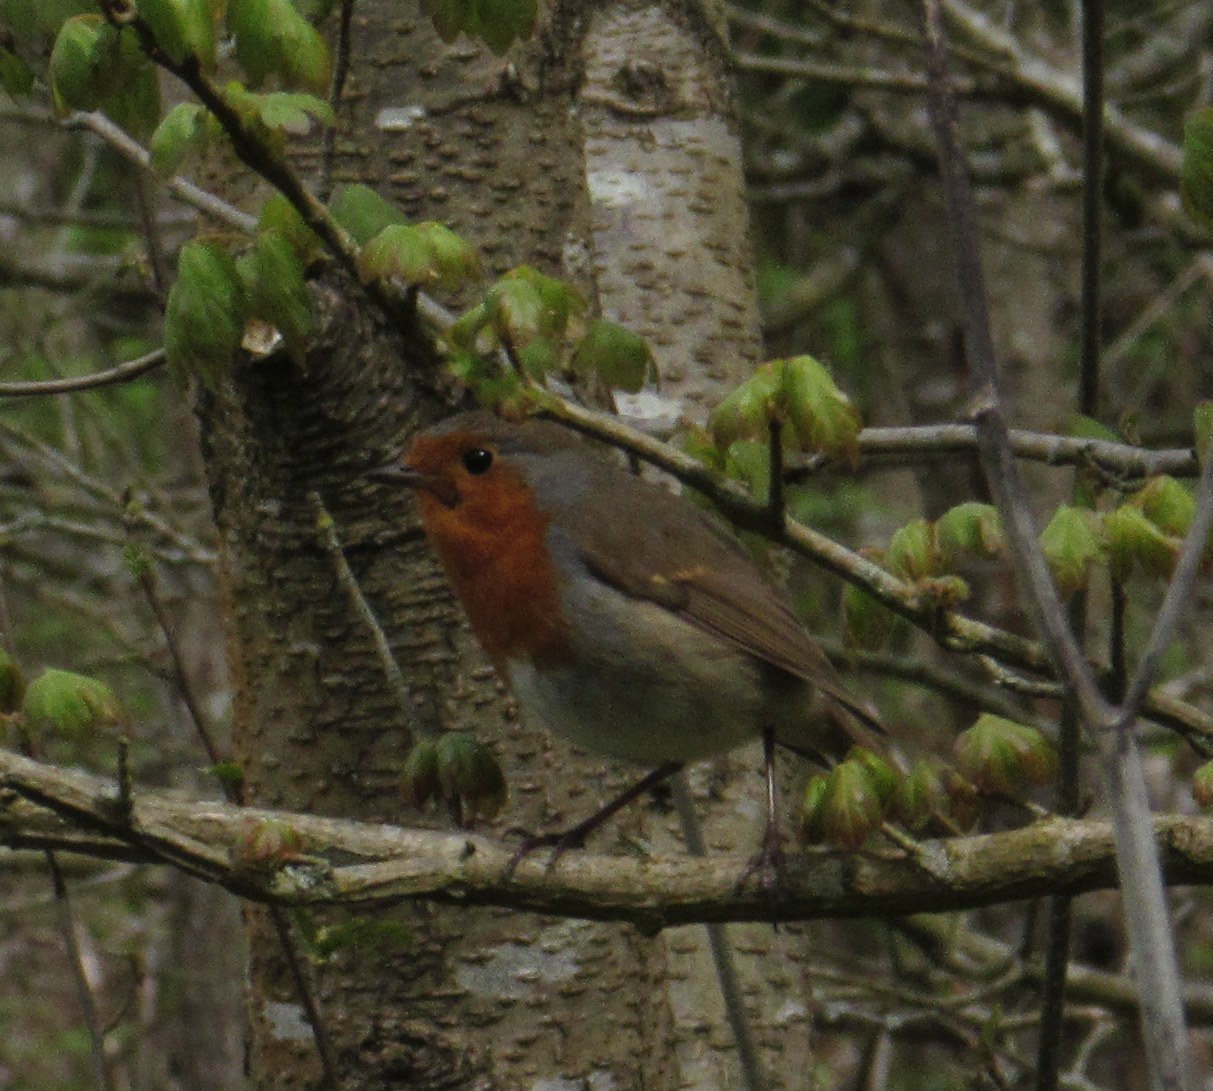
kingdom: Animalia
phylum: Chordata
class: Aves
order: Passeriformes
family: Muscicapidae
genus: Erithacus
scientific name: Erithacus rubecula
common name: European robin
